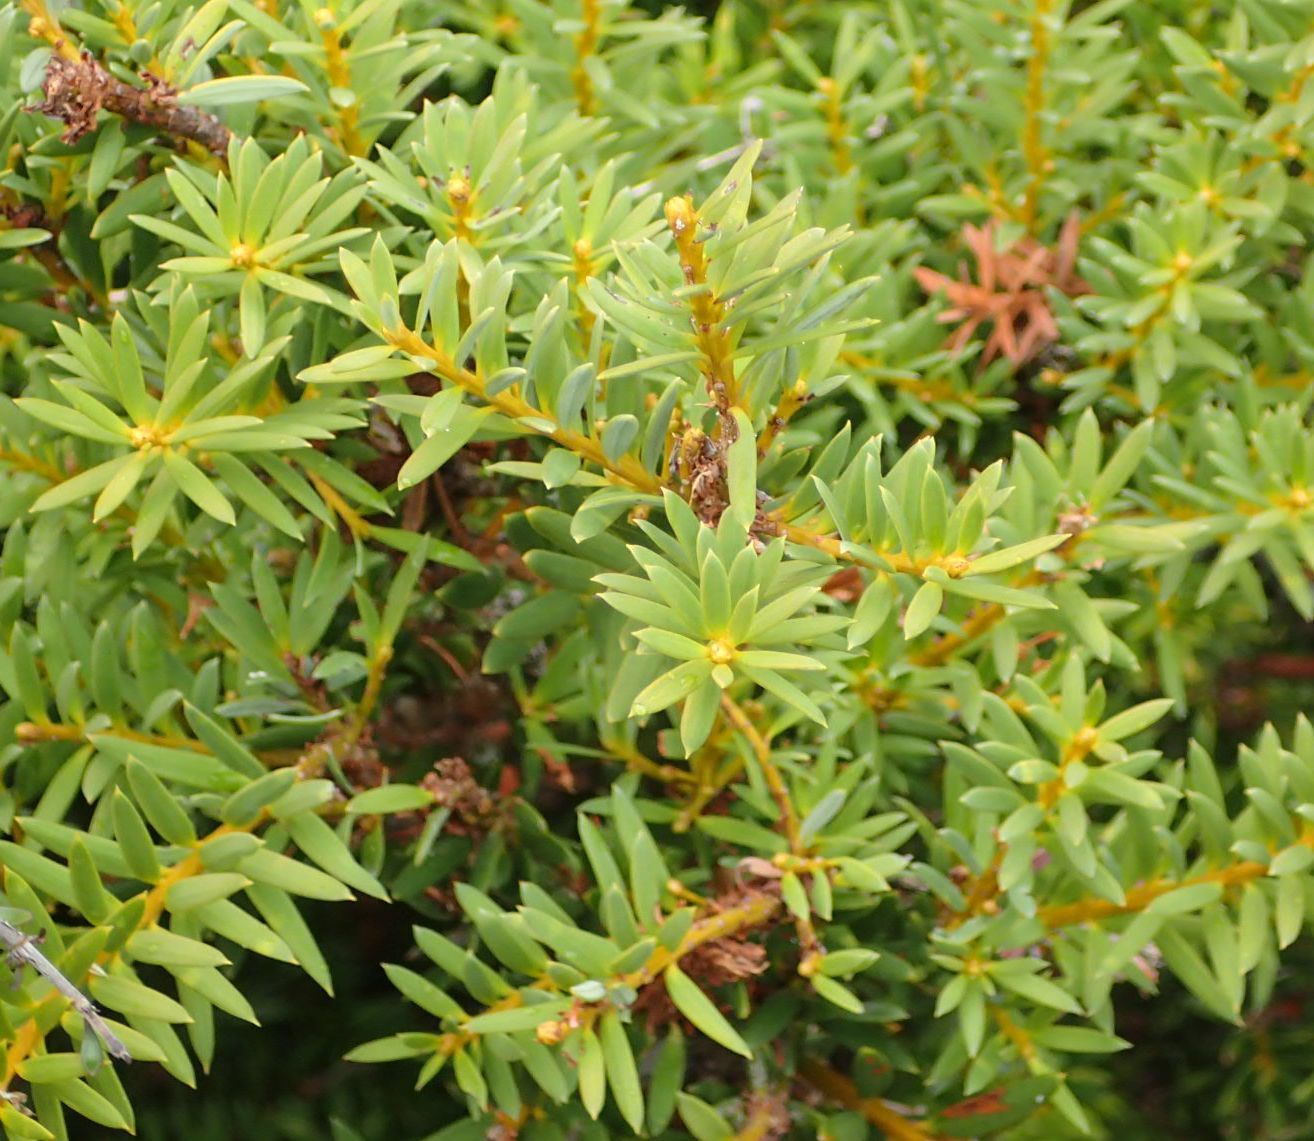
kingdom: Plantae
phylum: Tracheophyta
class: Pinopsida
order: Pinales
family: Podocarpaceae
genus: Podocarpus
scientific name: Podocarpus nivalis
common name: Alpine totara
